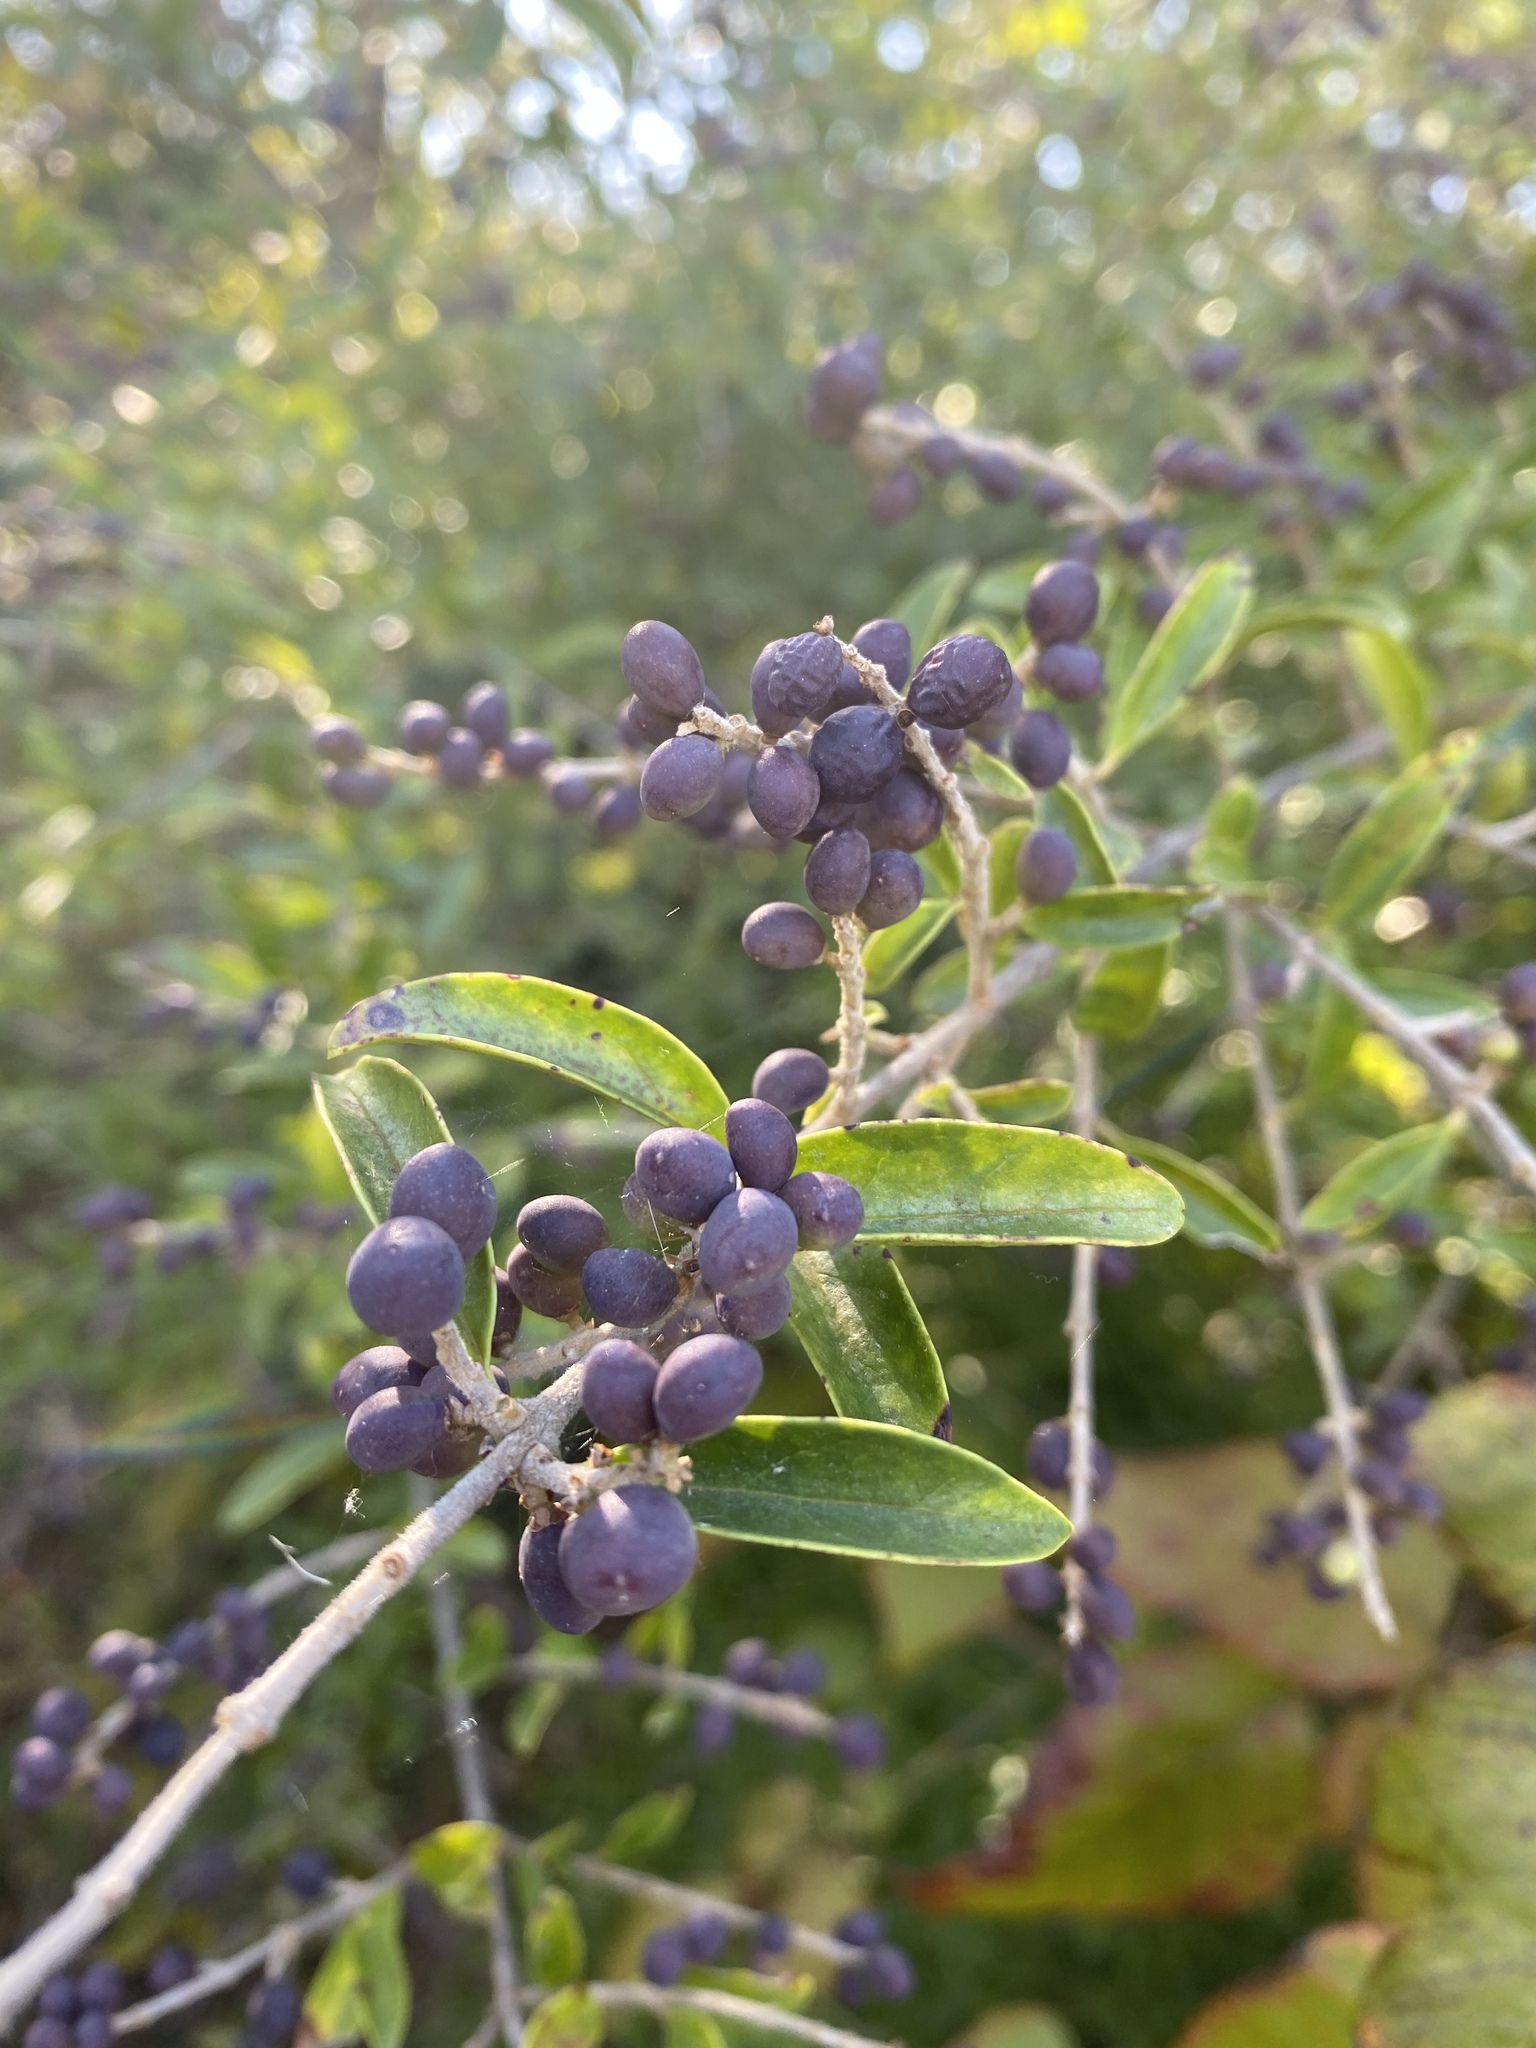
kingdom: Plantae
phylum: Tracheophyta
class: Magnoliopsida
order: Lamiales
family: Oleaceae
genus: Ligustrum
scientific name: Ligustrum quihoui
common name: Waxyleaf privet
